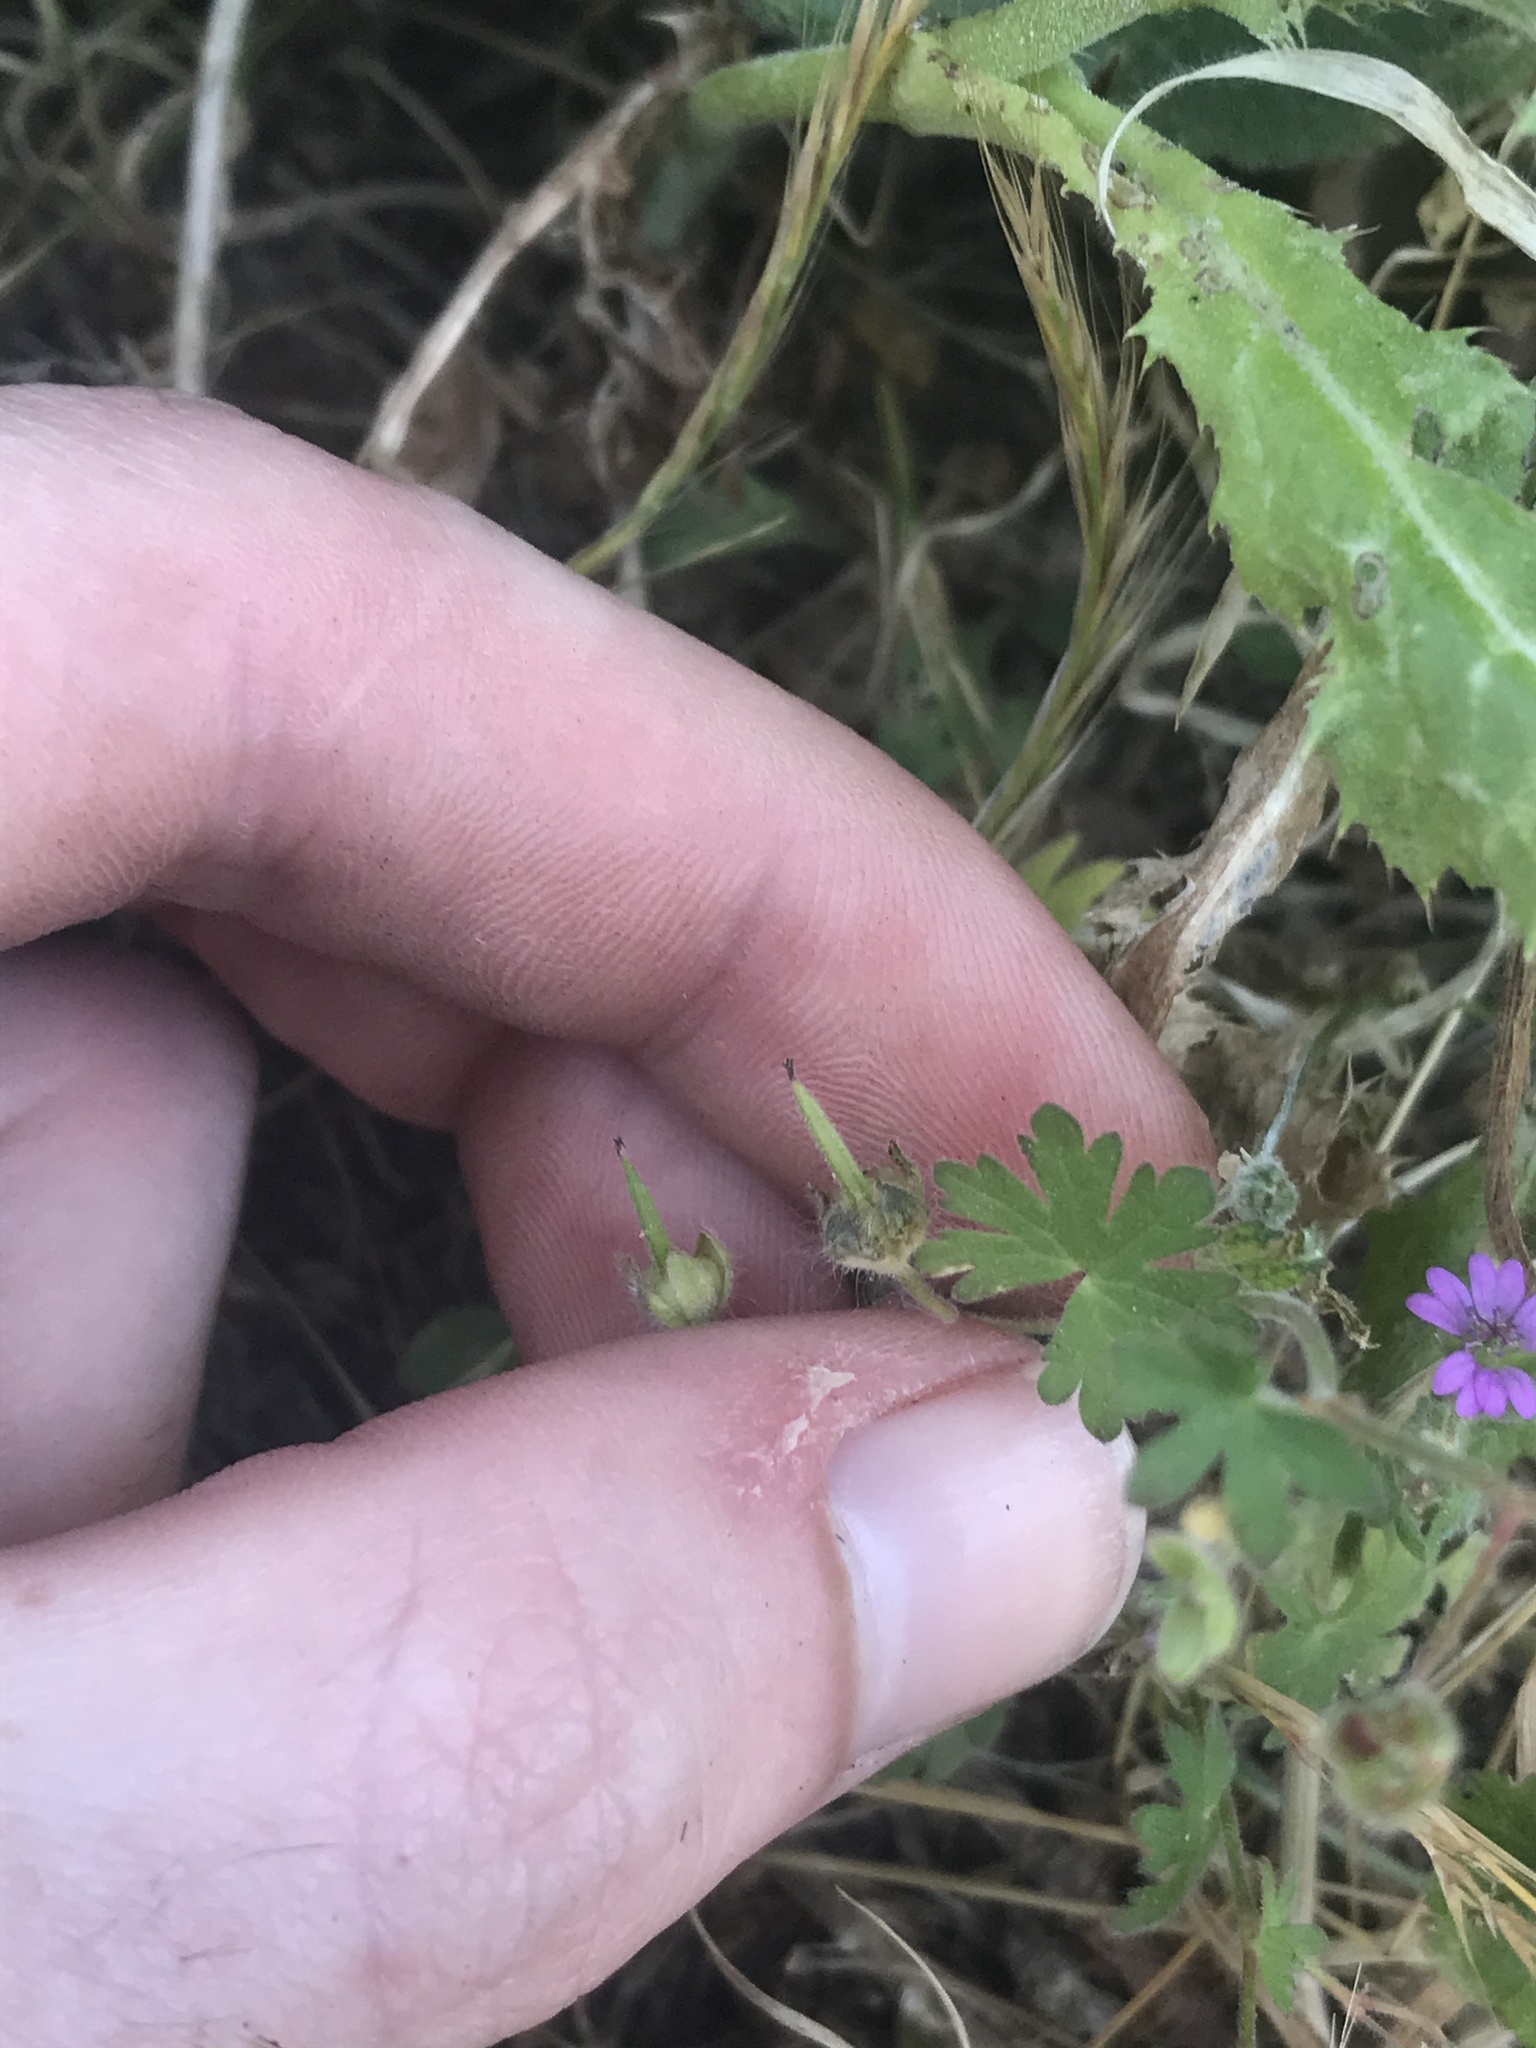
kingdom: Plantae
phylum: Tracheophyta
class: Magnoliopsida
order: Geraniales
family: Geraniaceae
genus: Geranium
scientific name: Geranium molle
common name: Dove's-foot crane's-bill
